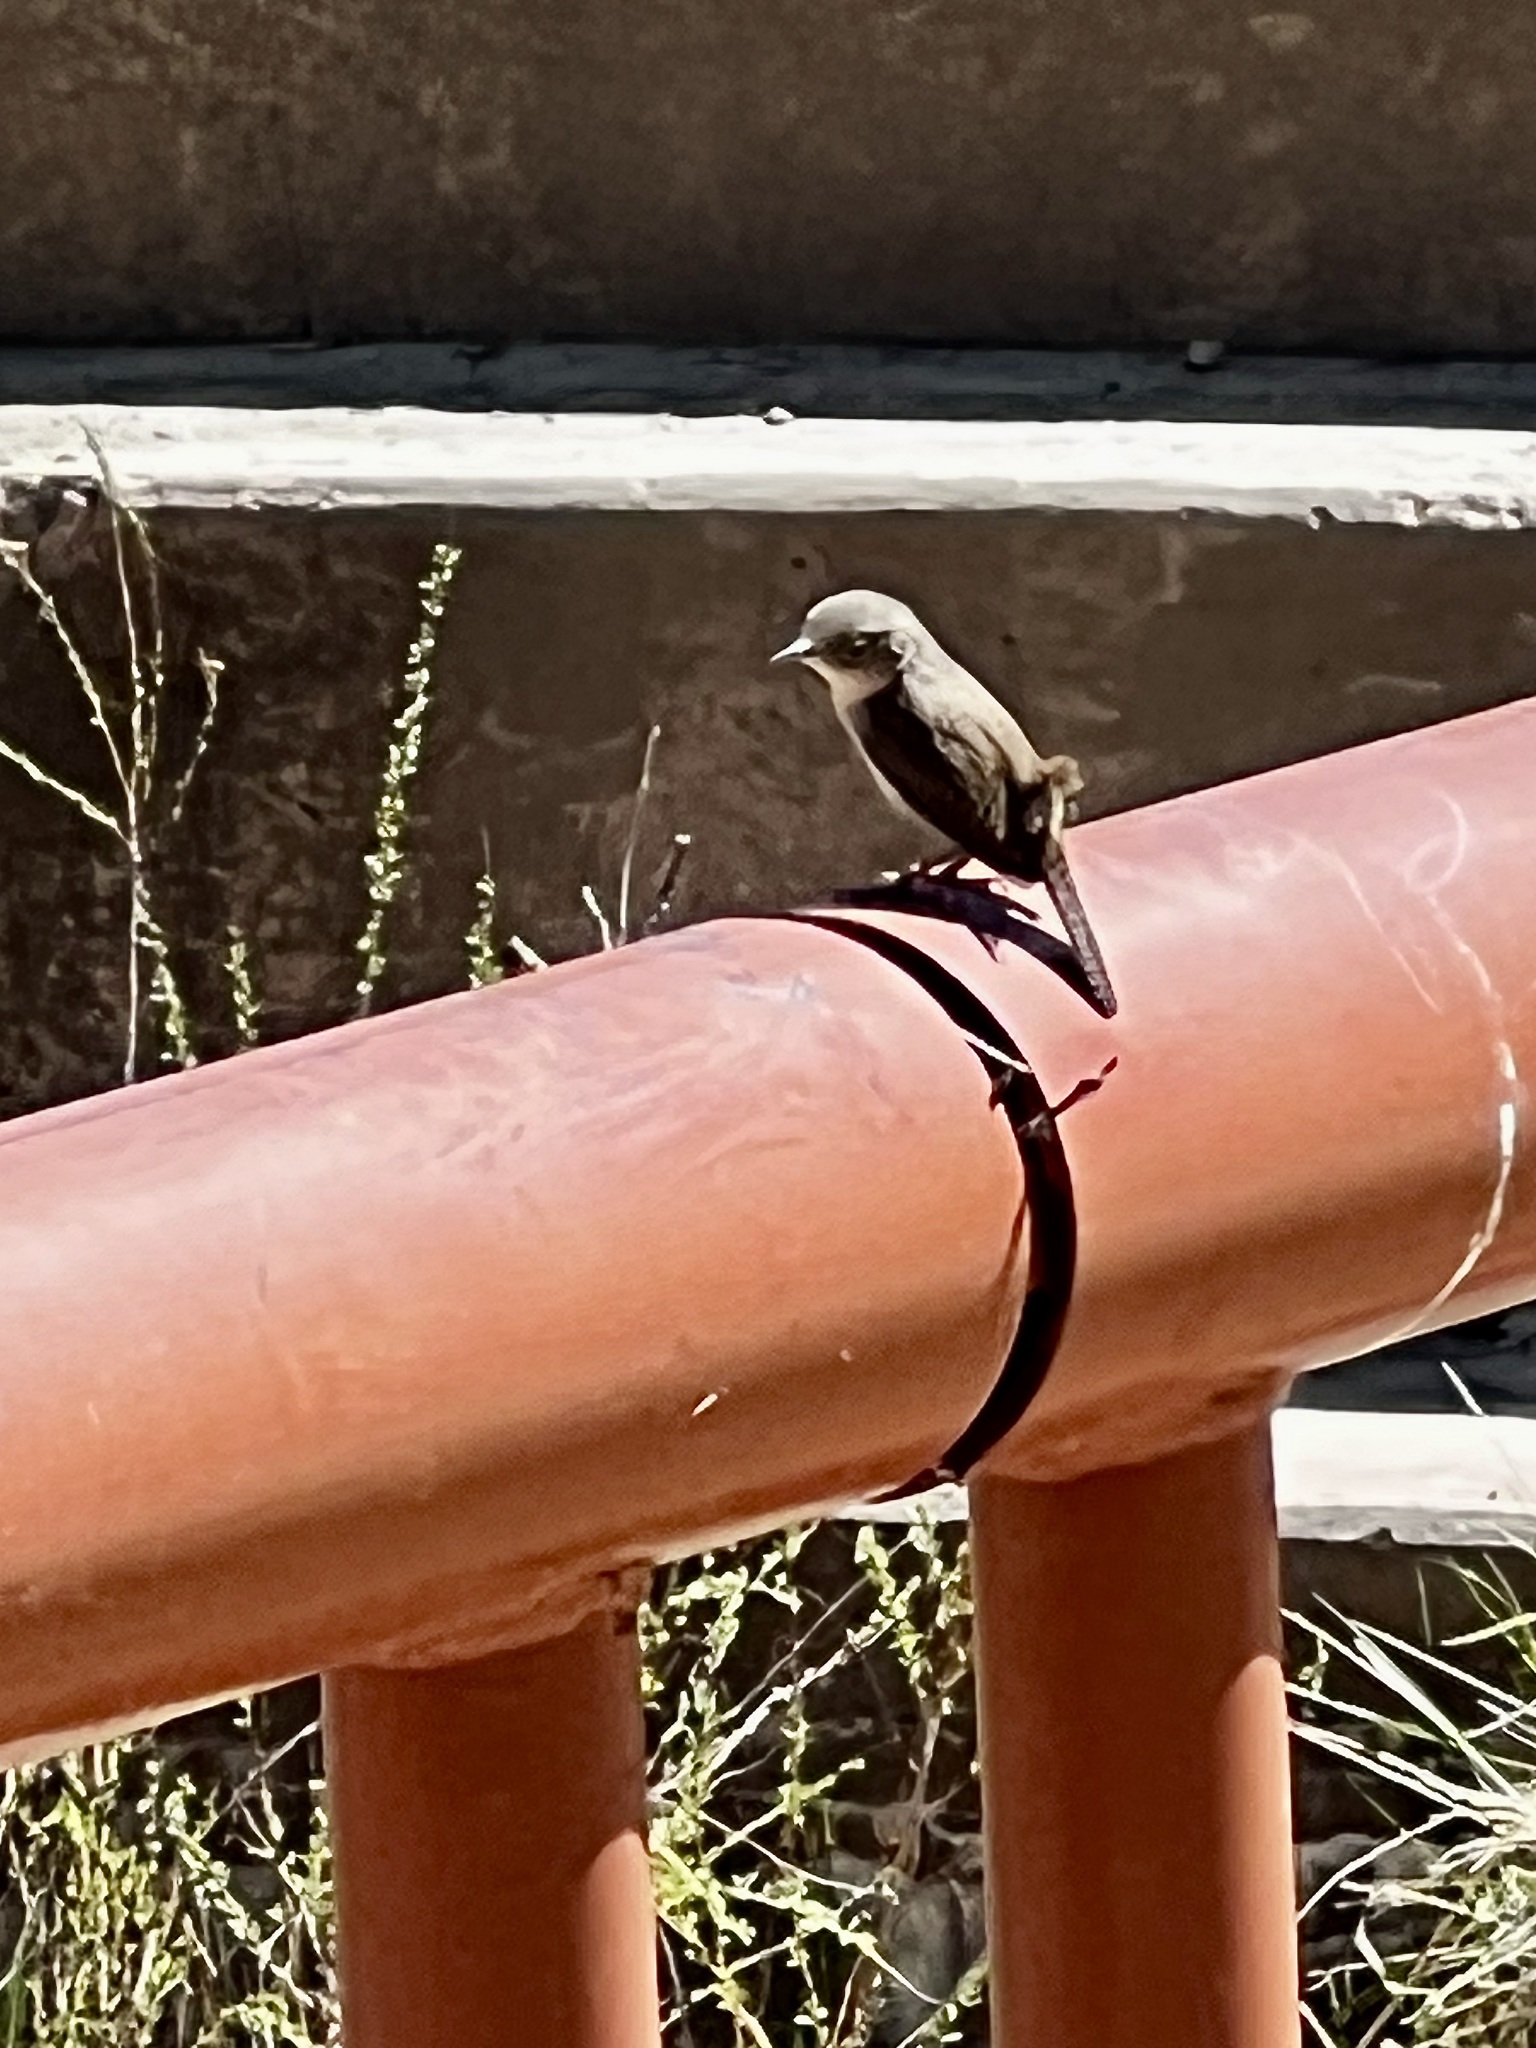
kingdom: Animalia
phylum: Chordata
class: Aves
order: Passeriformes
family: Troglodytidae
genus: Troglodytes
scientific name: Troglodytes aedon
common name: House wren
